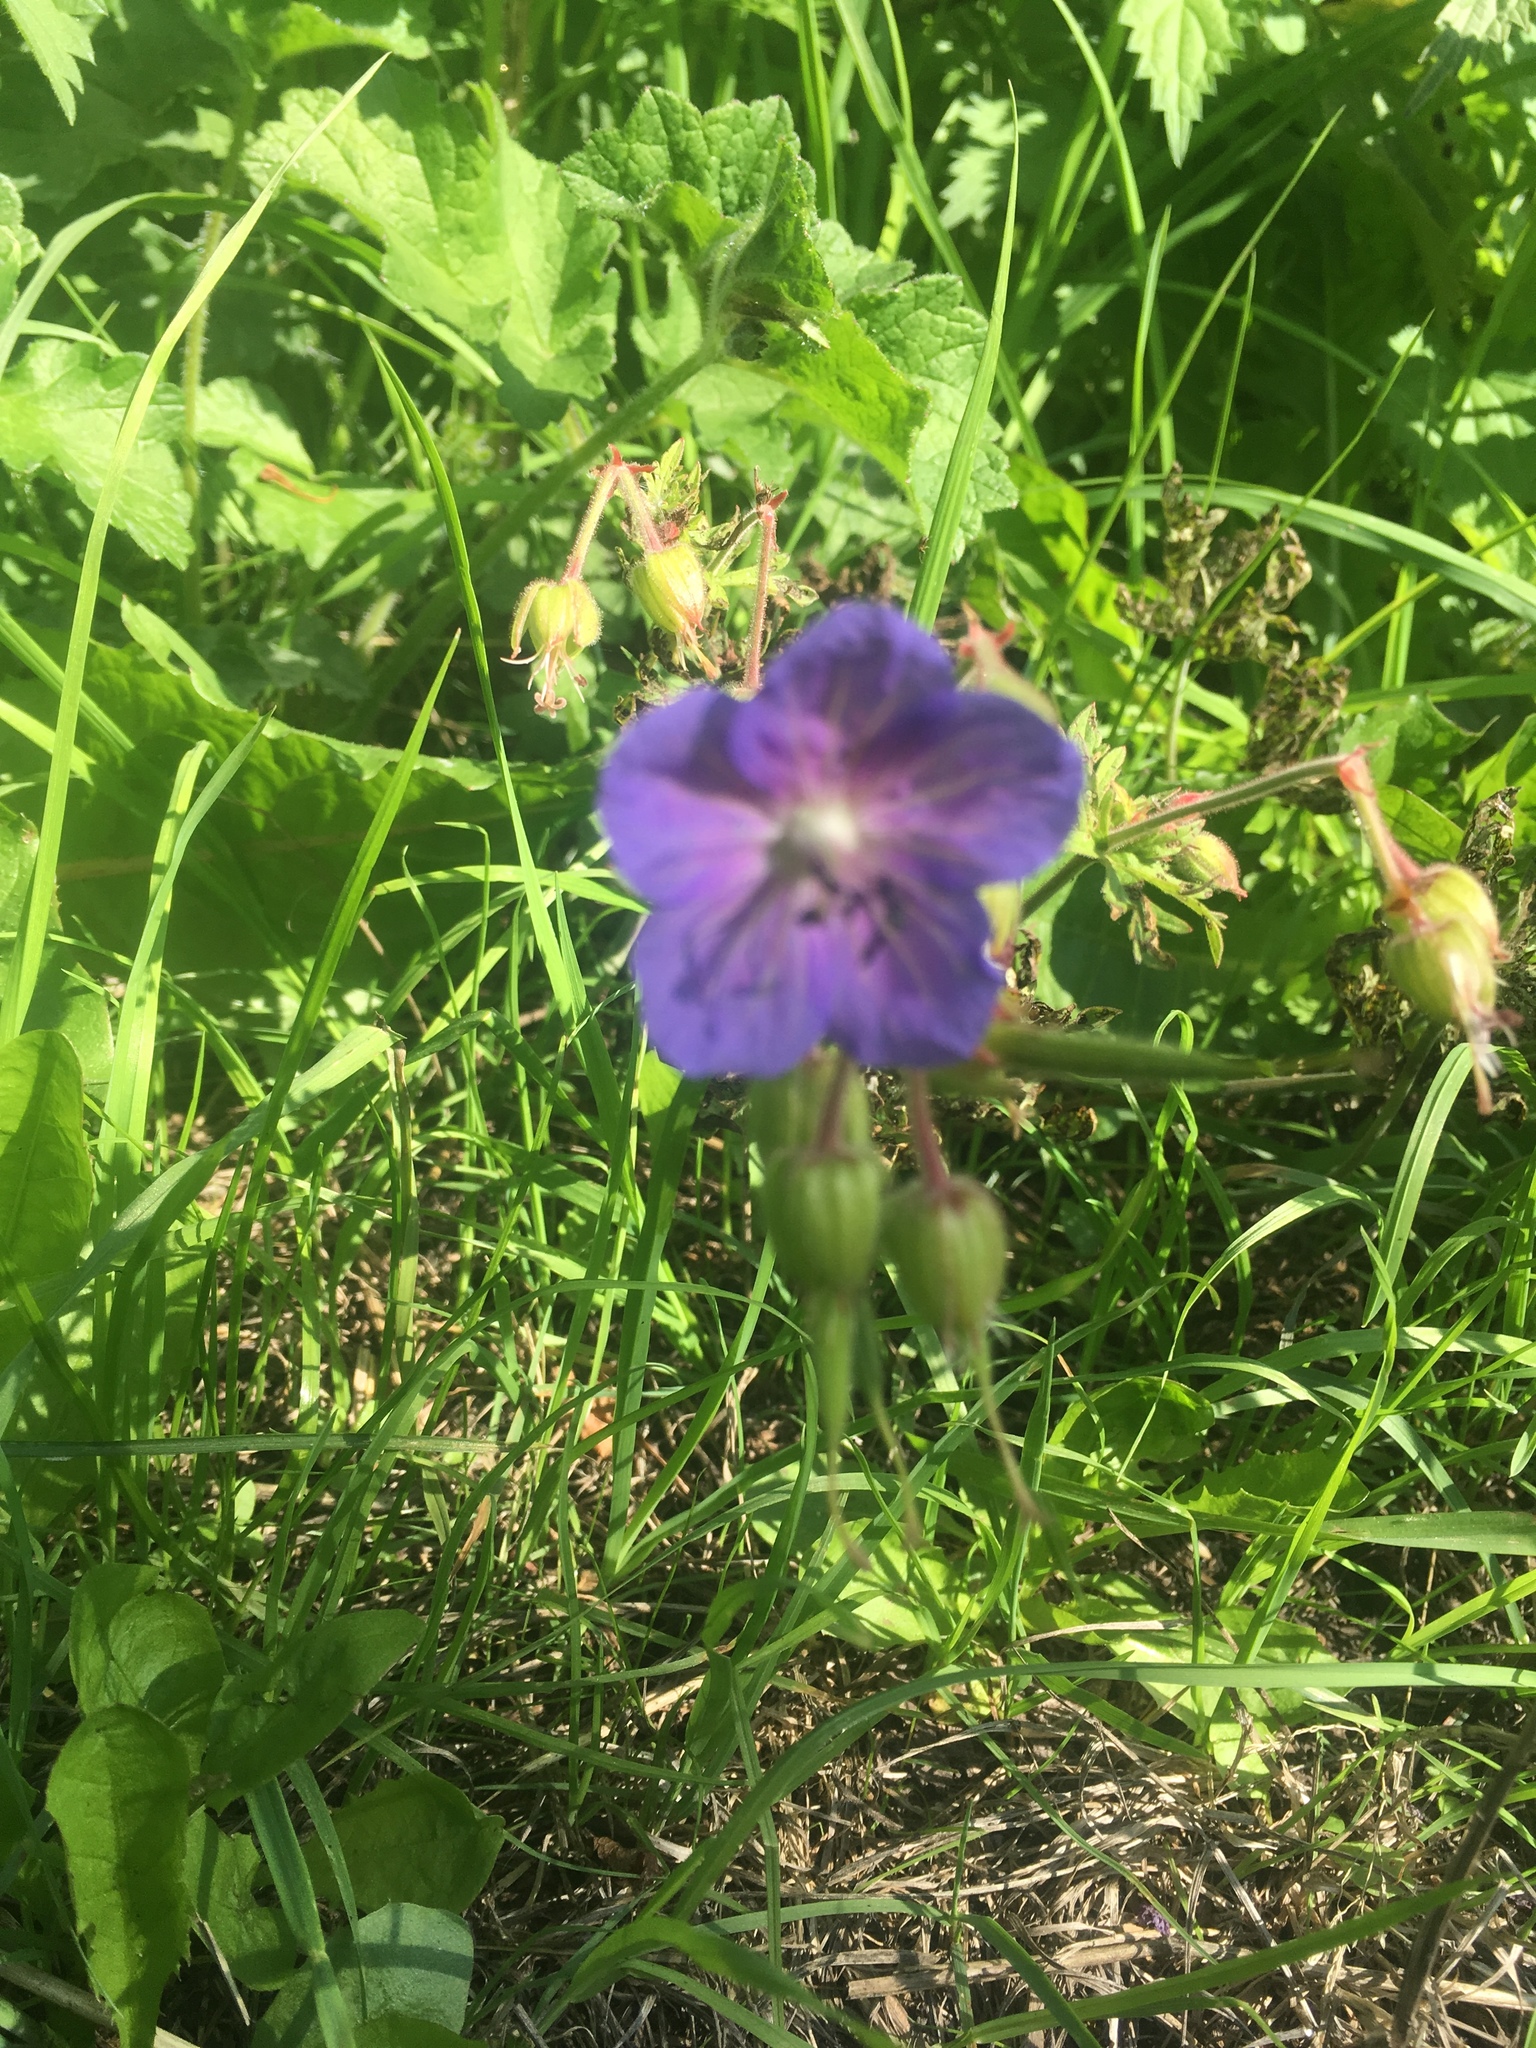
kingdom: Plantae
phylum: Tracheophyta
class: Magnoliopsida
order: Geraniales
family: Geraniaceae
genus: Geranium
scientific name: Geranium pratense
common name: Meadow crane's-bill
